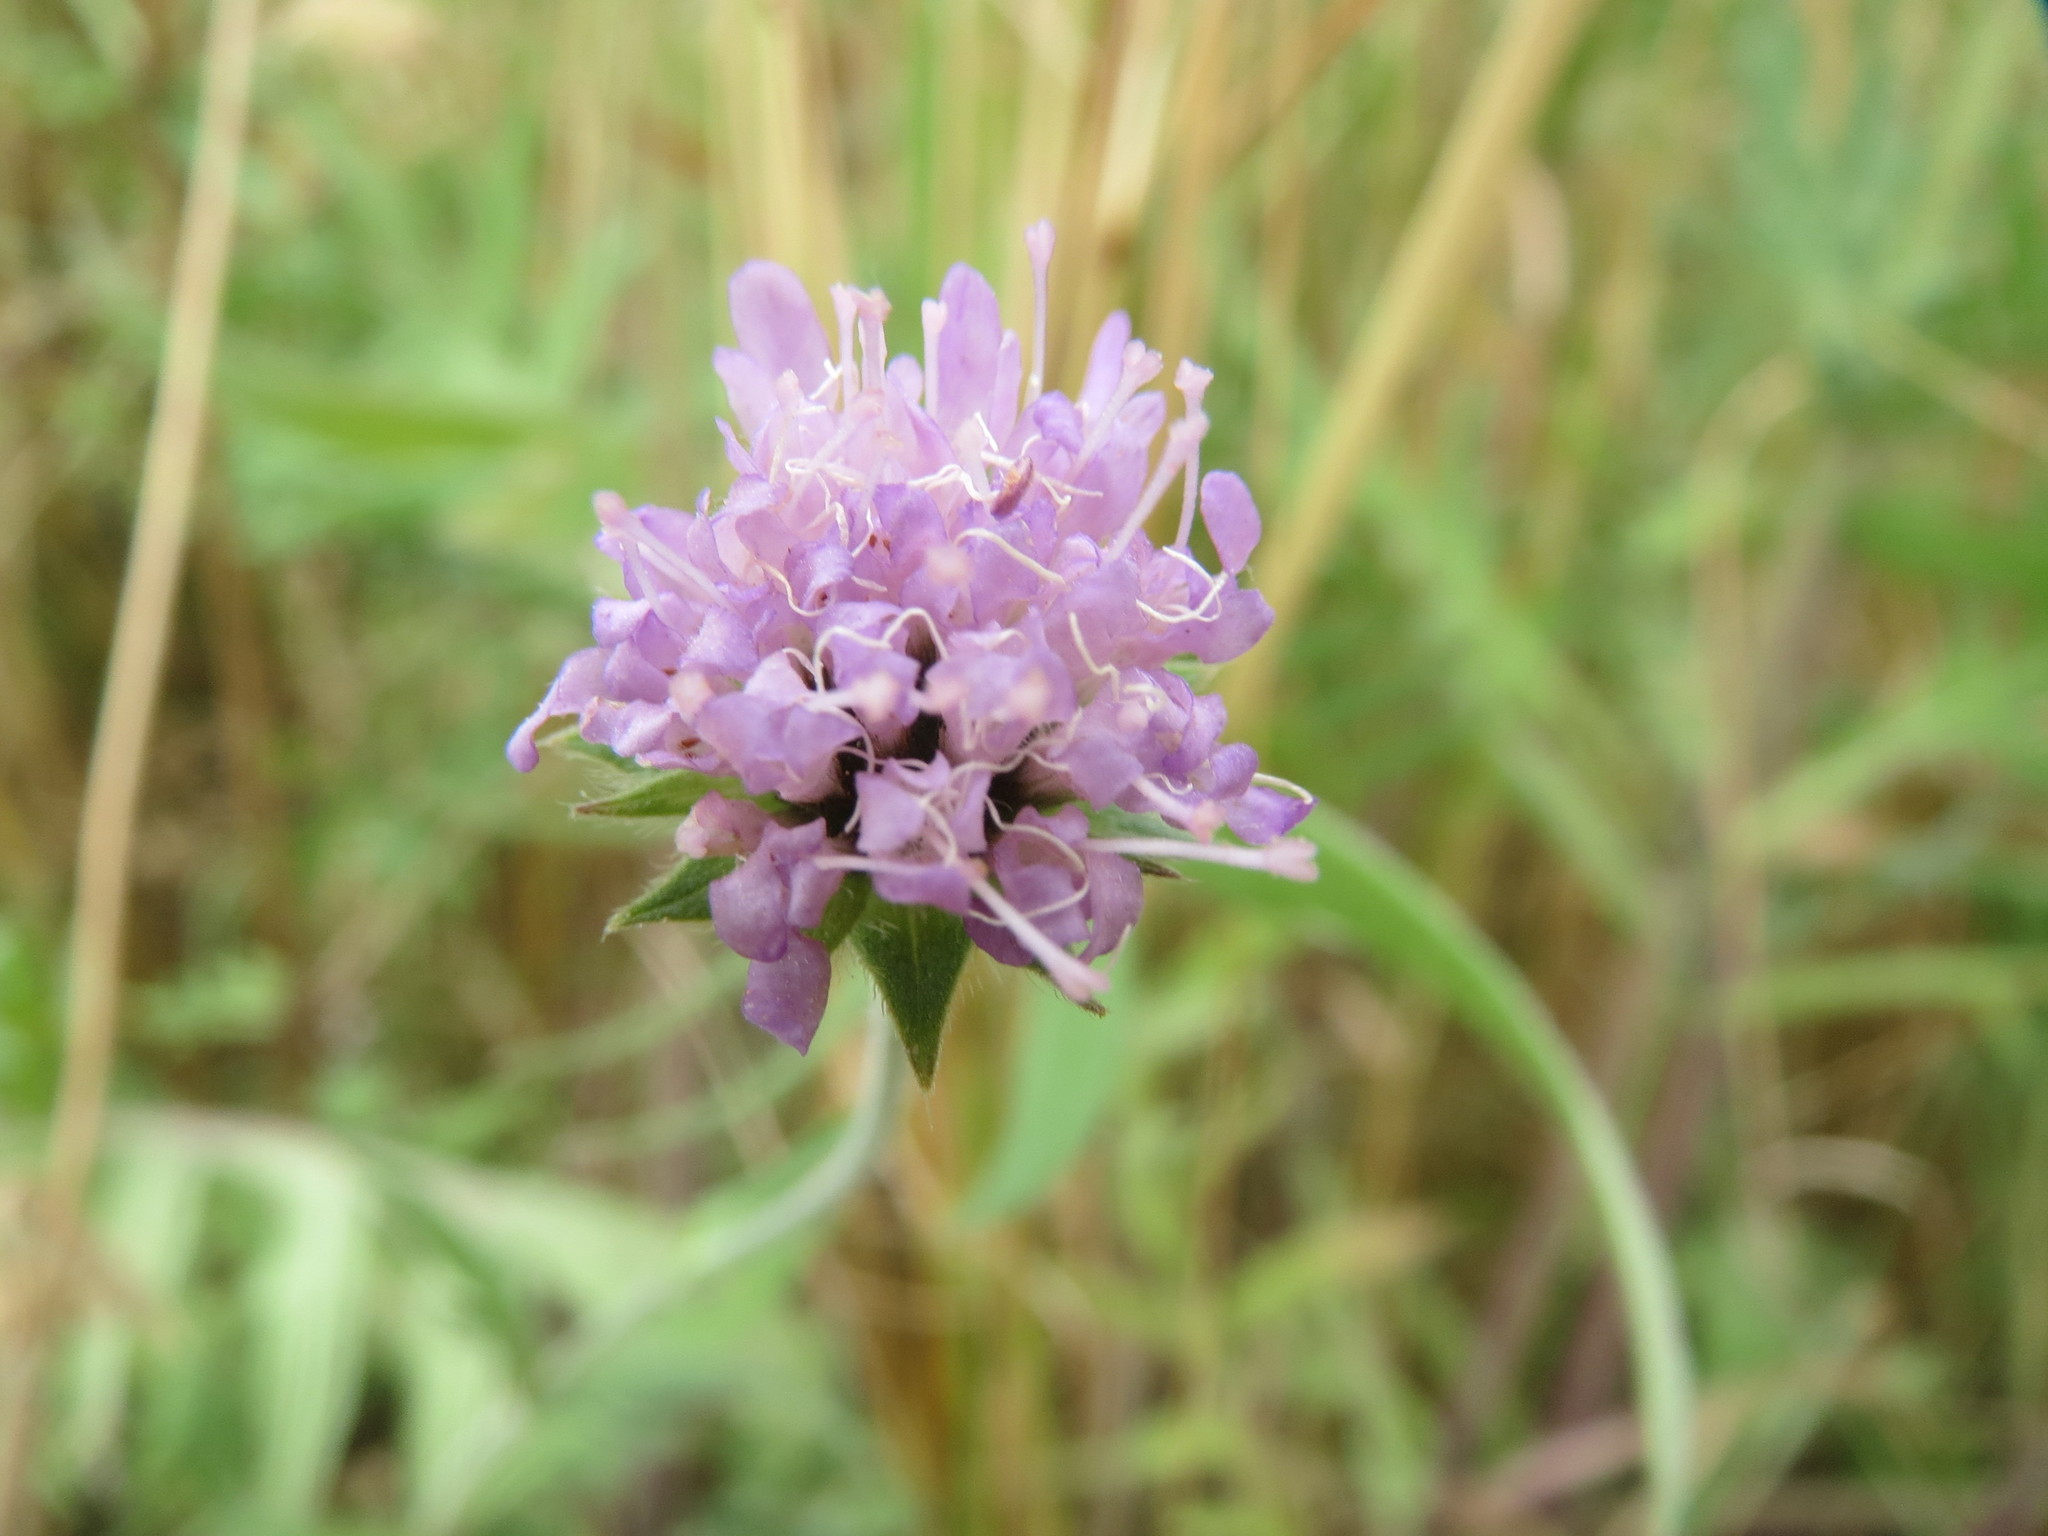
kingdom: Plantae
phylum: Tracheophyta
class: Magnoliopsida
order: Dipsacales
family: Caprifoliaceae
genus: Knautia
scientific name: Knautia arvensis
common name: Field scabiosa
